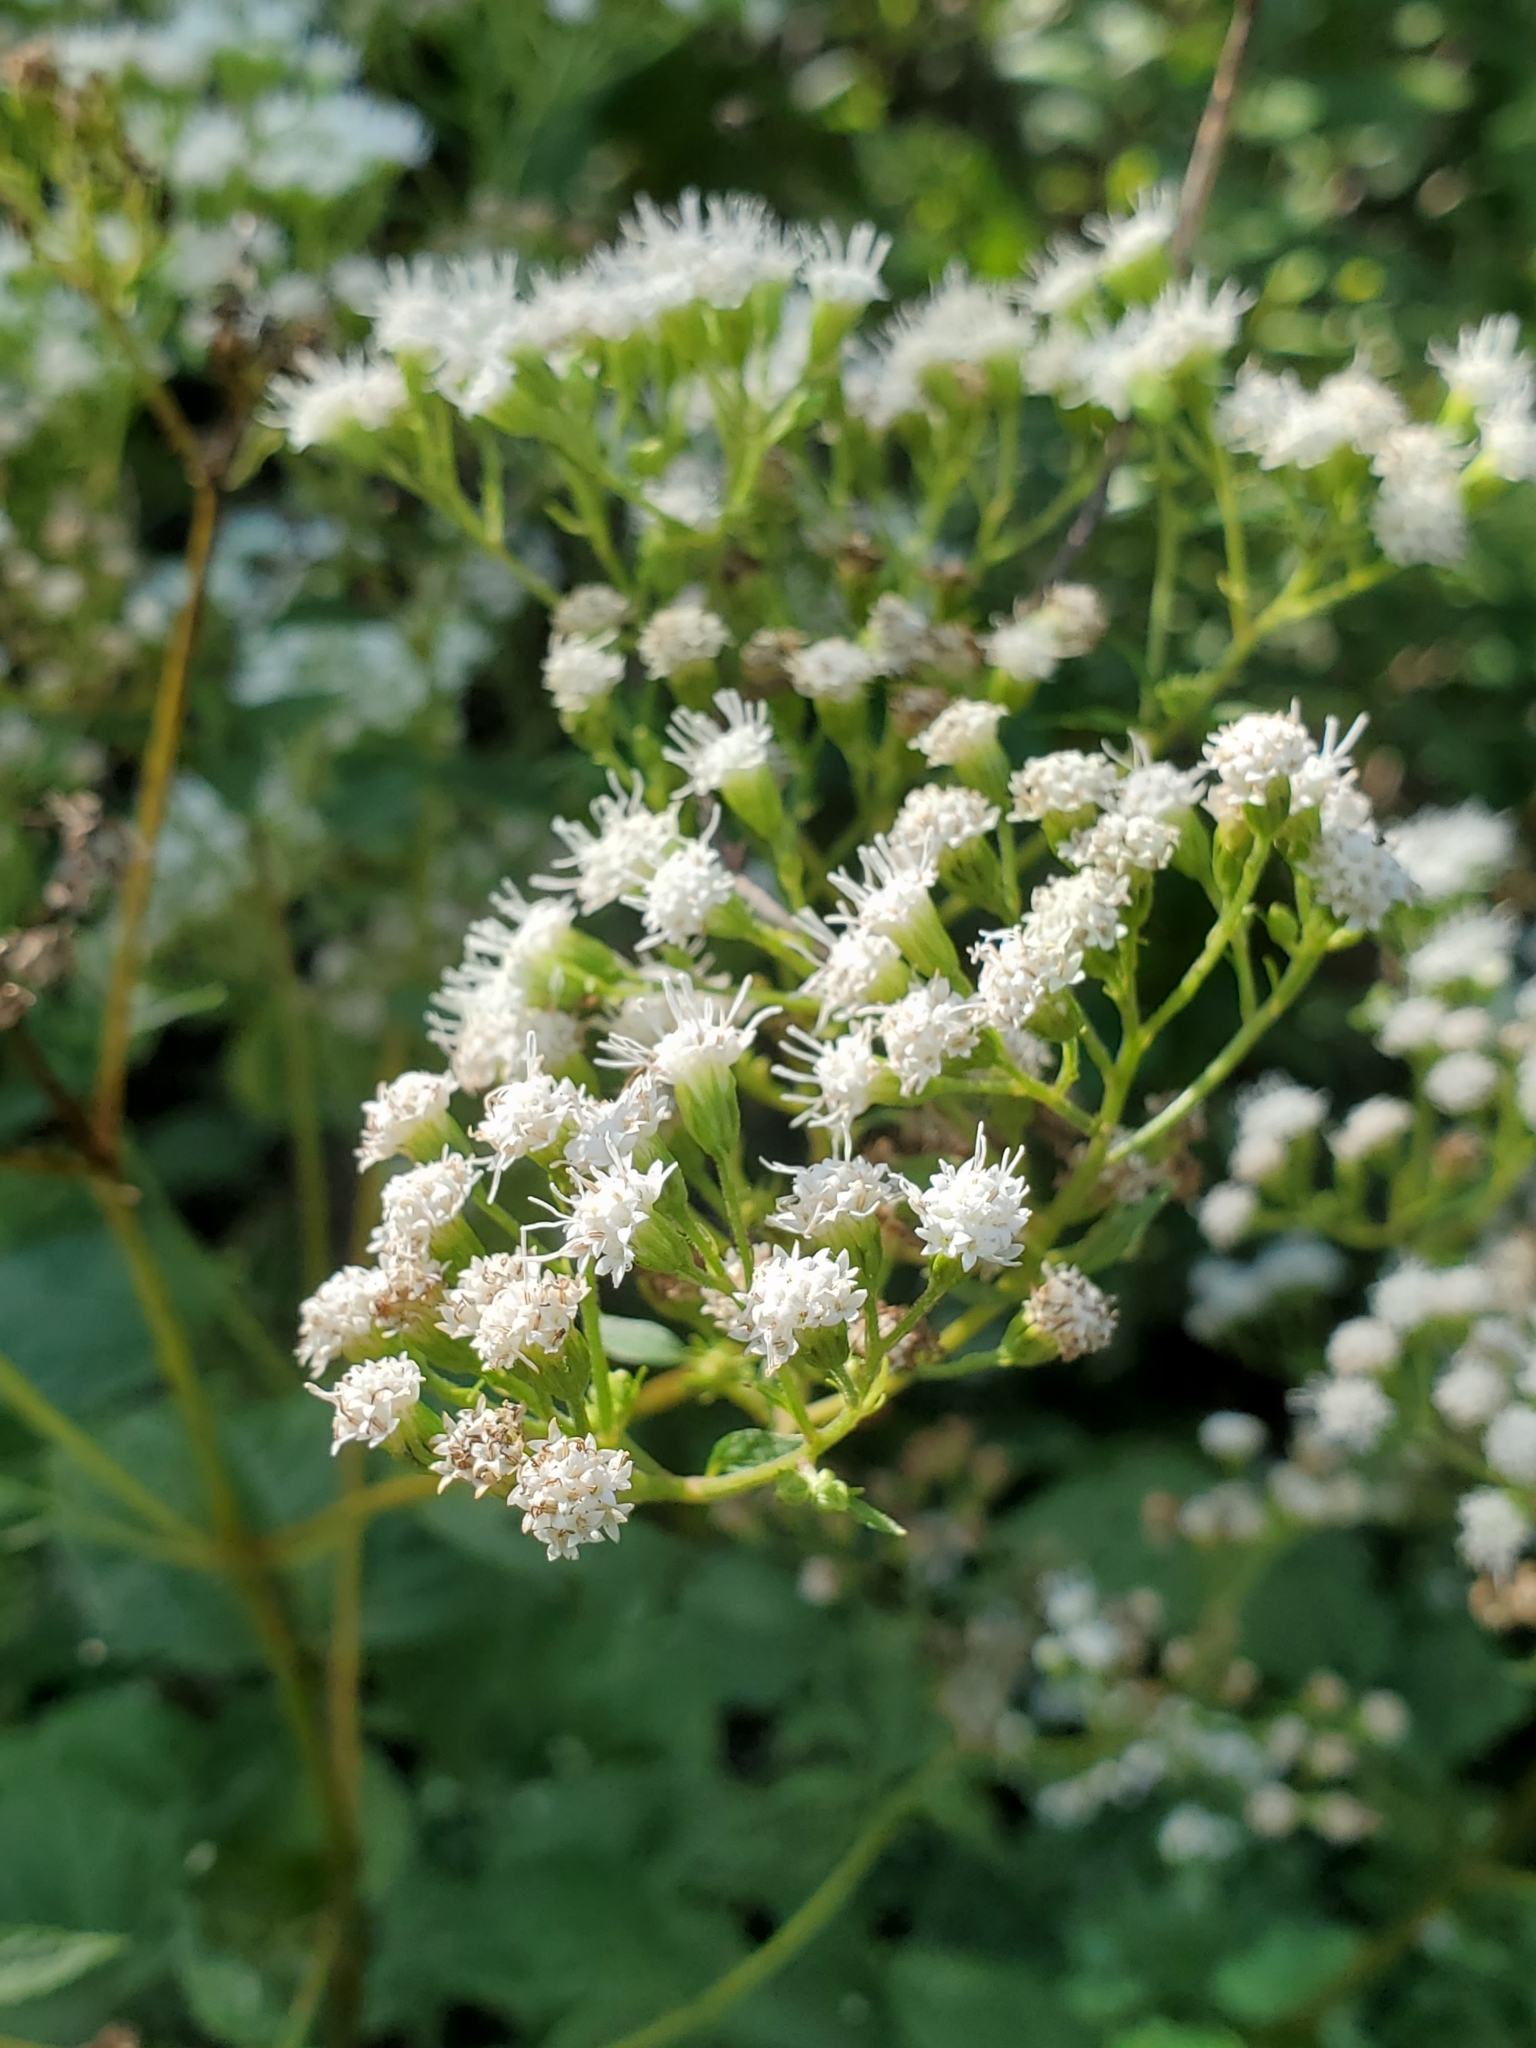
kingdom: Plantae
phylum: Tracheophyta
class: Magnoliopsida
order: Asterales
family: Asteraceae
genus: Ageratina
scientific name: Ageratina altissima
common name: White snakeroot
